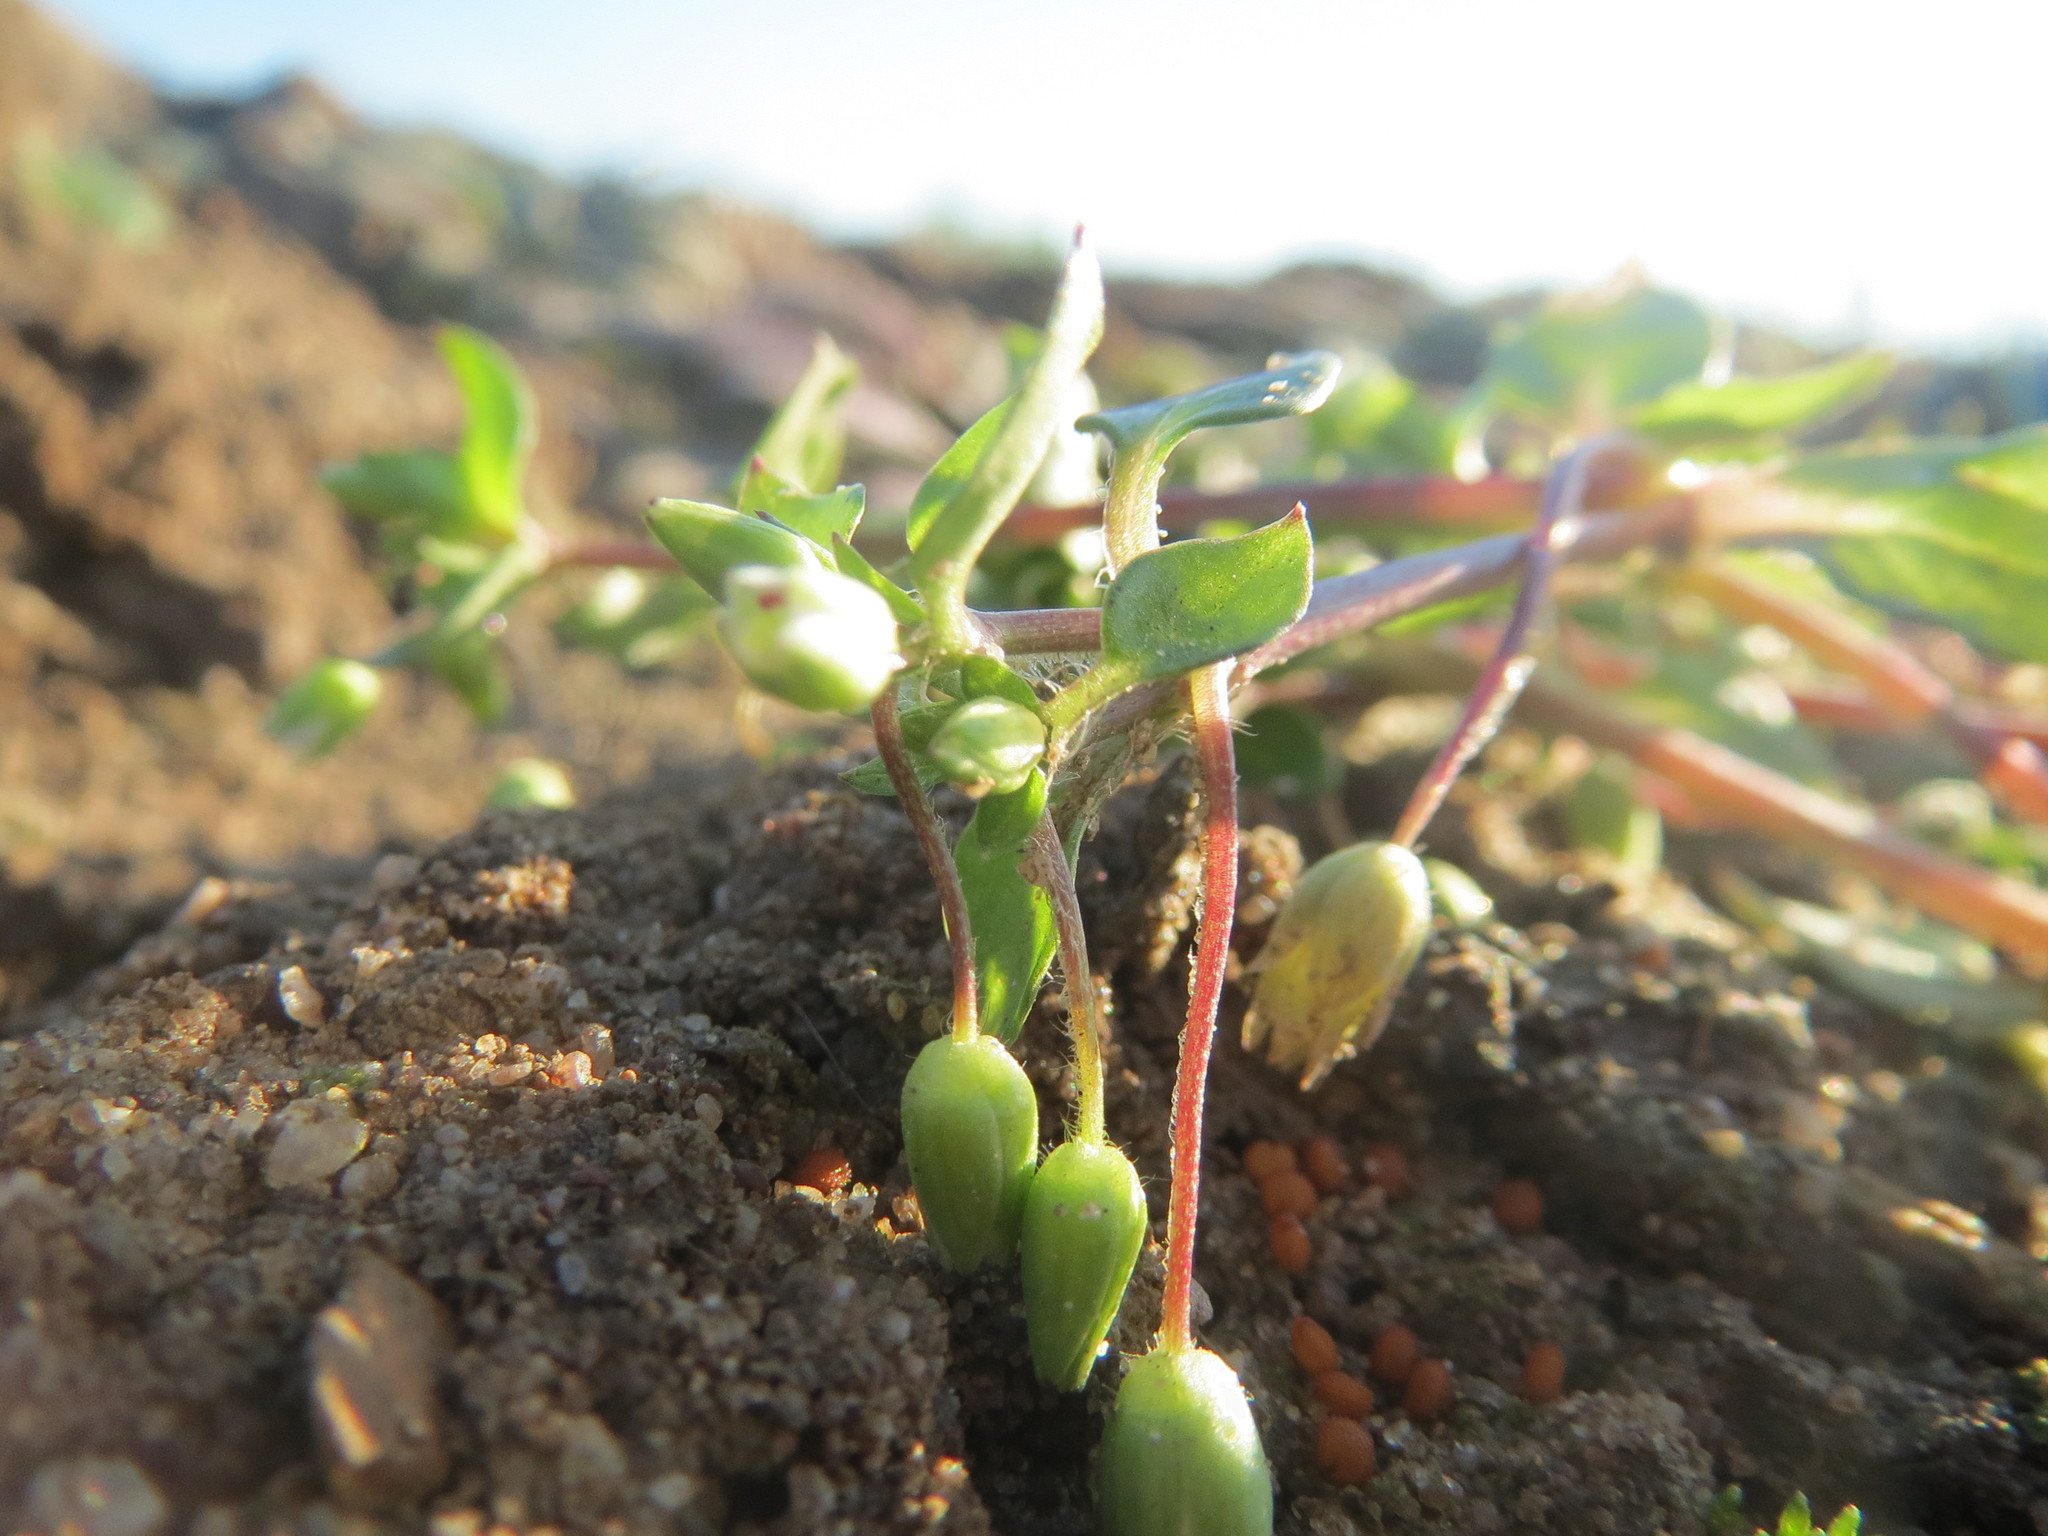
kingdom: Plantae
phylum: Tracheophyta
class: Magnoliopsida
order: Caryophyllales
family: Caryophyllaceae
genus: Stellaria
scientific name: Stellaria media
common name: Common chickweed
